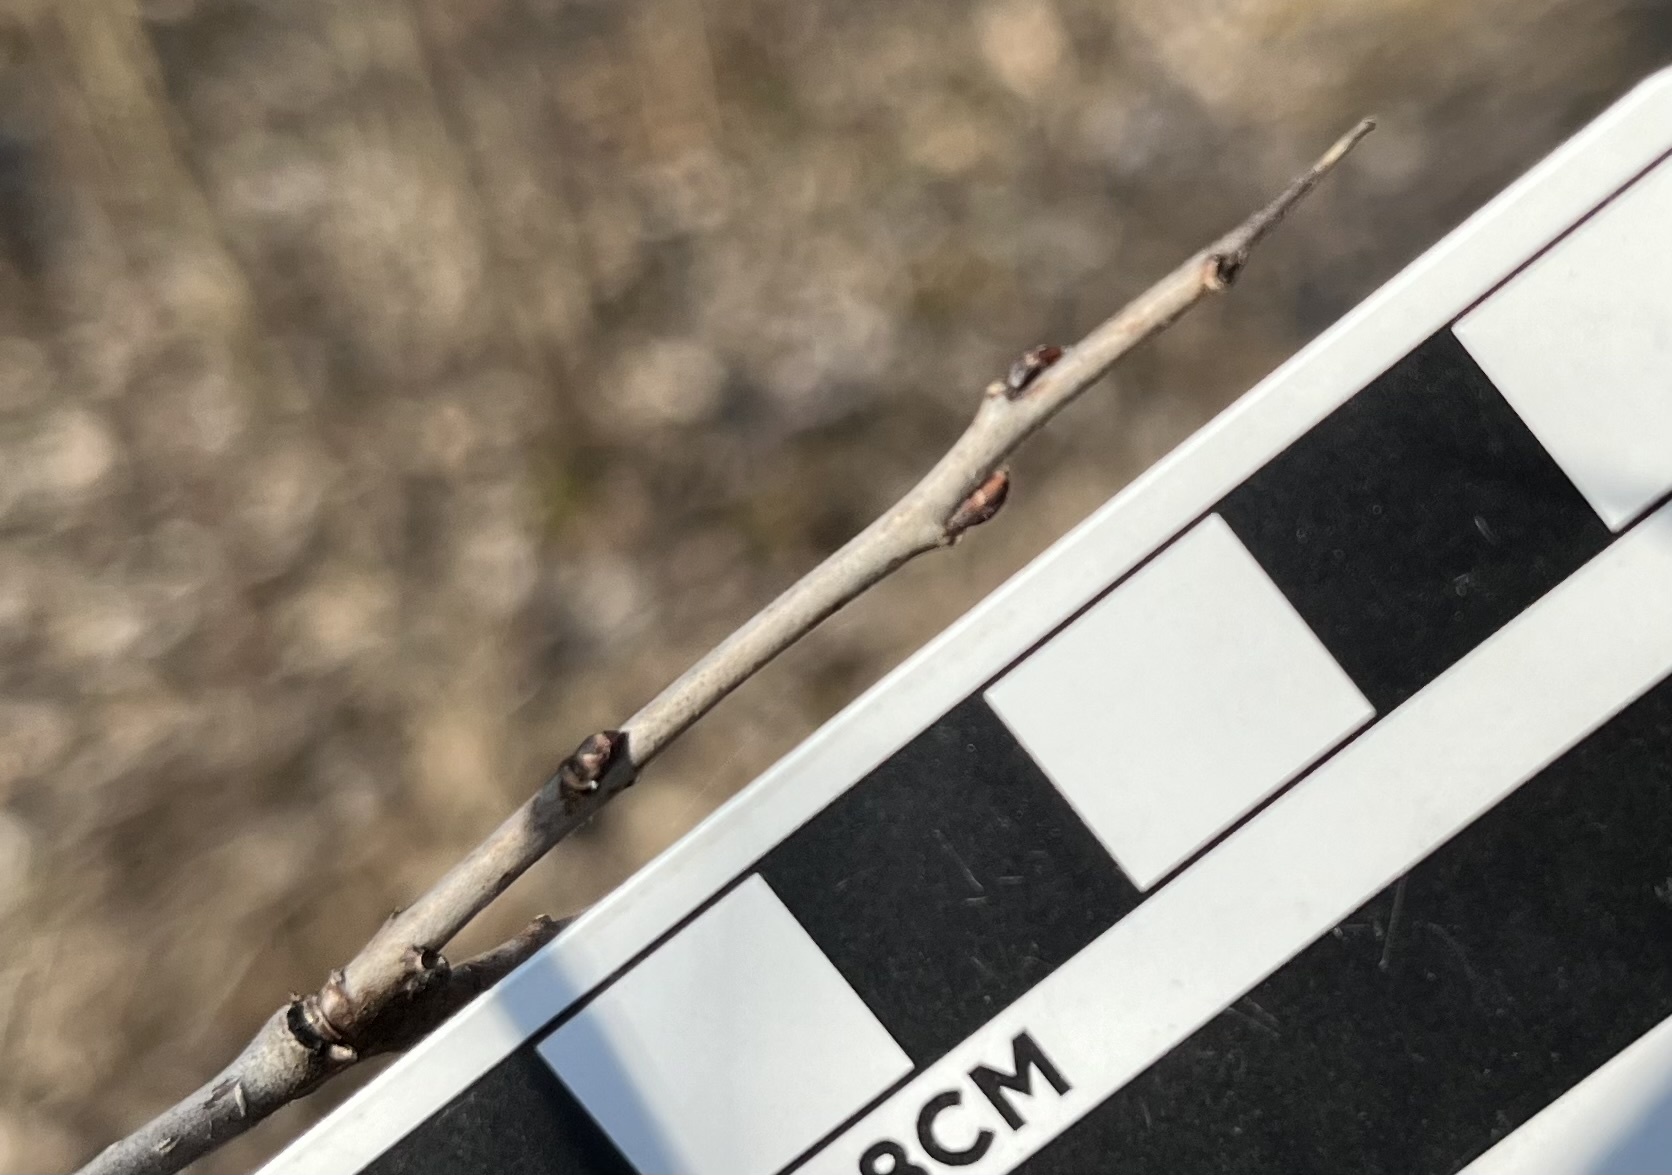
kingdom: Plantae
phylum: Tracheophyta
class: Magnoliopsida
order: Rosales
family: Rhamnaceae
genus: Rhamnus
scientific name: Rhamnus cathartica
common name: Common buckthorn
